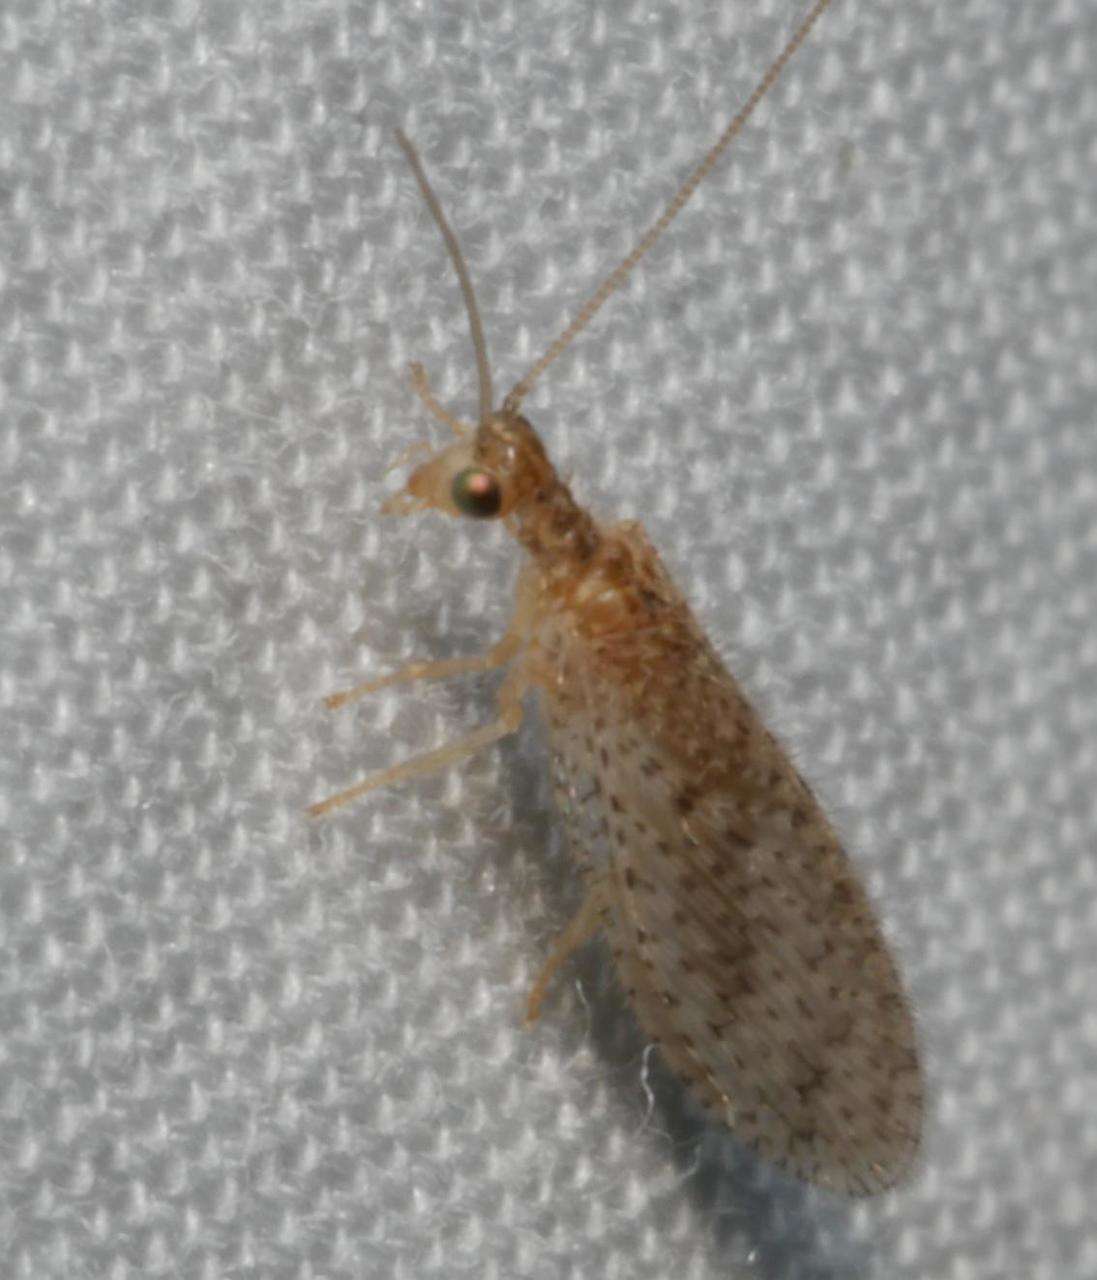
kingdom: Animalia
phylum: Arthropoda
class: Insecta
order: Neuroptera
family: Hemerobiidae
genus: Micromus
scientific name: Micromus tasmaniae
